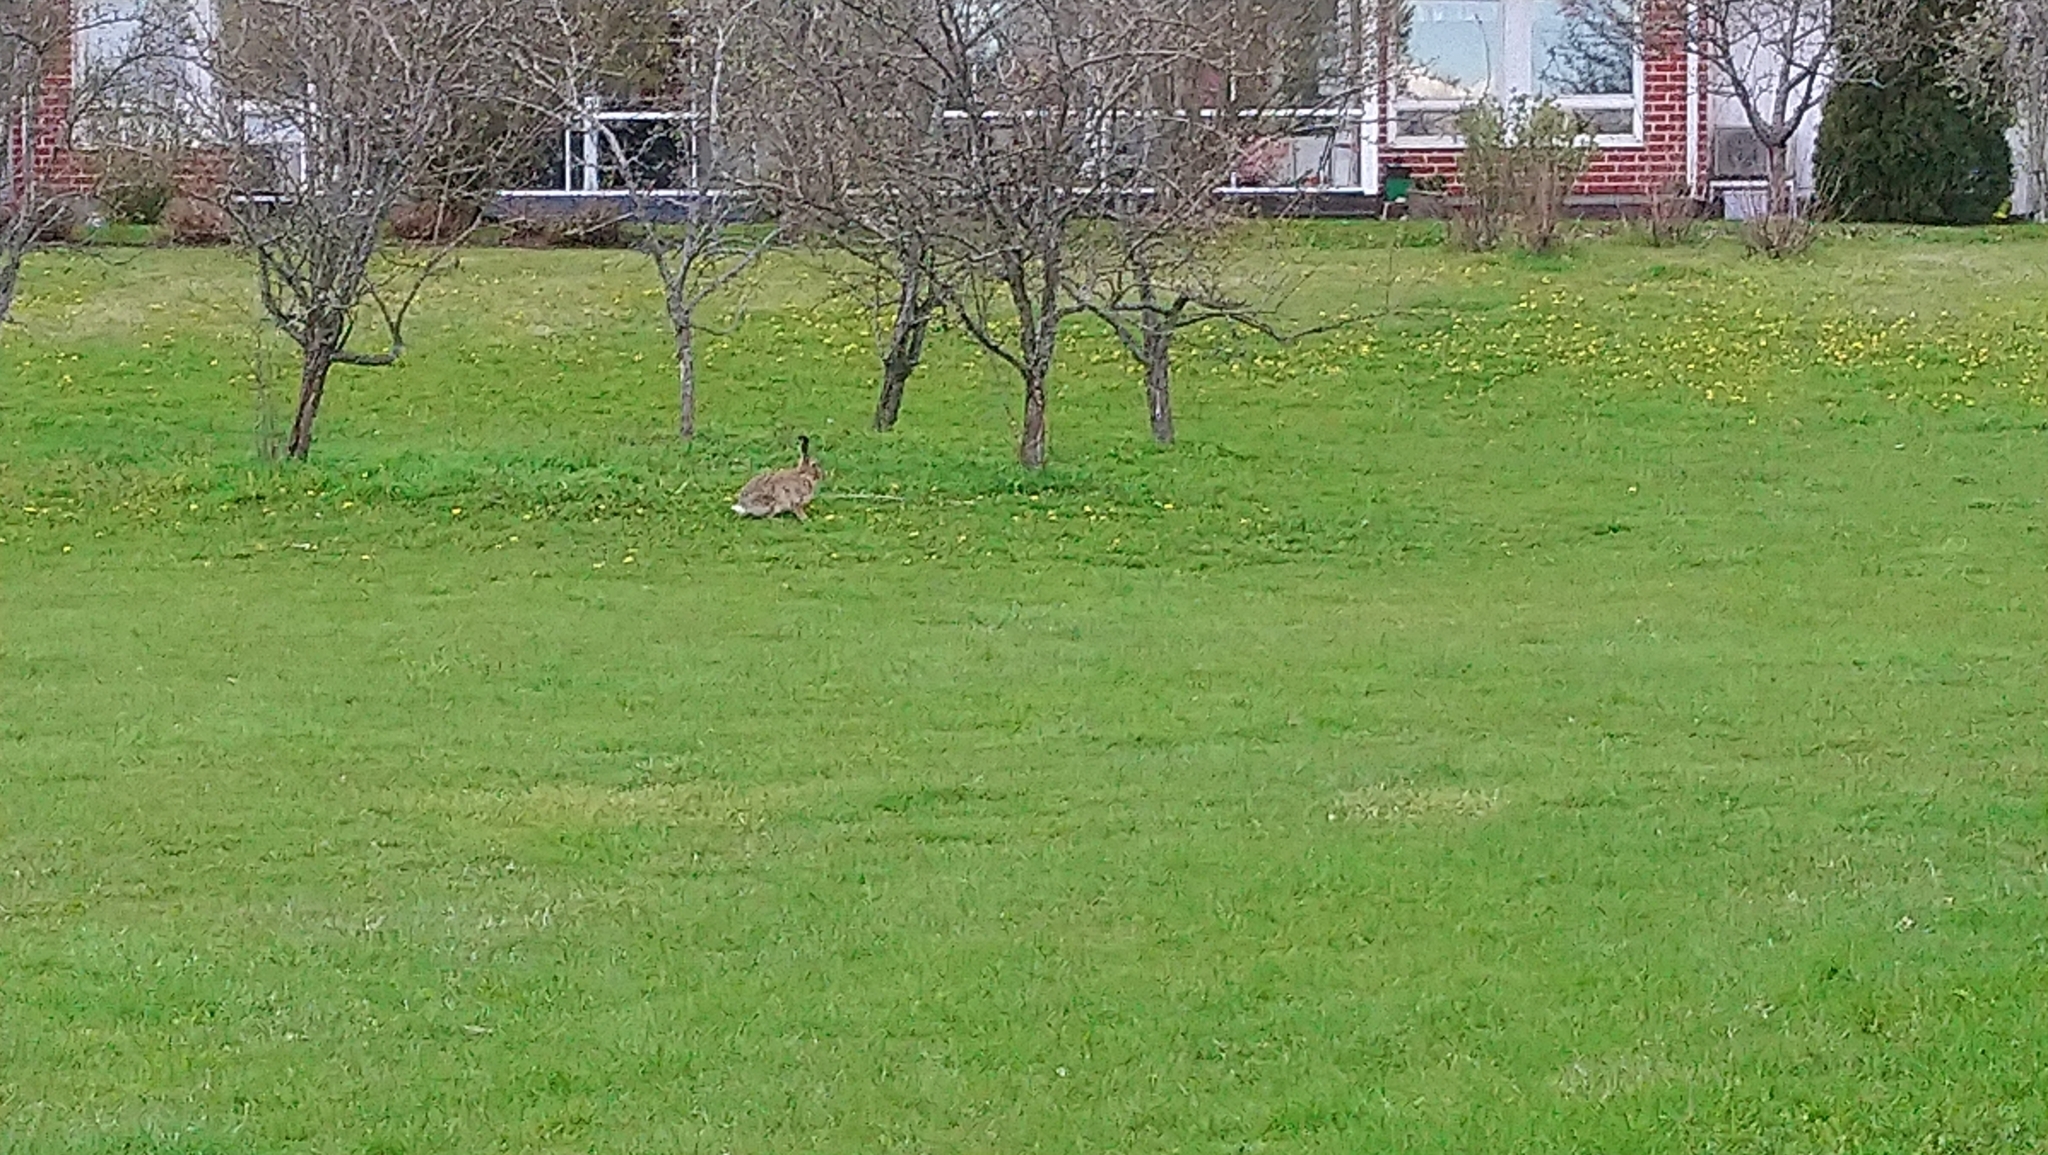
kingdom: Animalia
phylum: Chordata
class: Mammalia
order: Lagomorpha
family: Leporidae
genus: Lepus
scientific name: Lepus europaeus
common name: European hare
